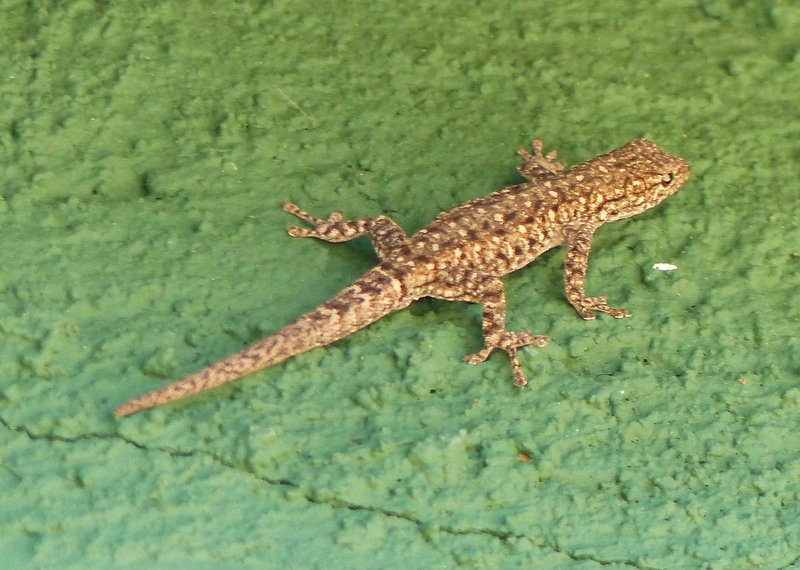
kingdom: Animalia
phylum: Chordata
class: Squamata
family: Gekkonidae
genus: Lygodactylus
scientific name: Lygodactylus stevensoni
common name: Stevenson's dwarf gecko
